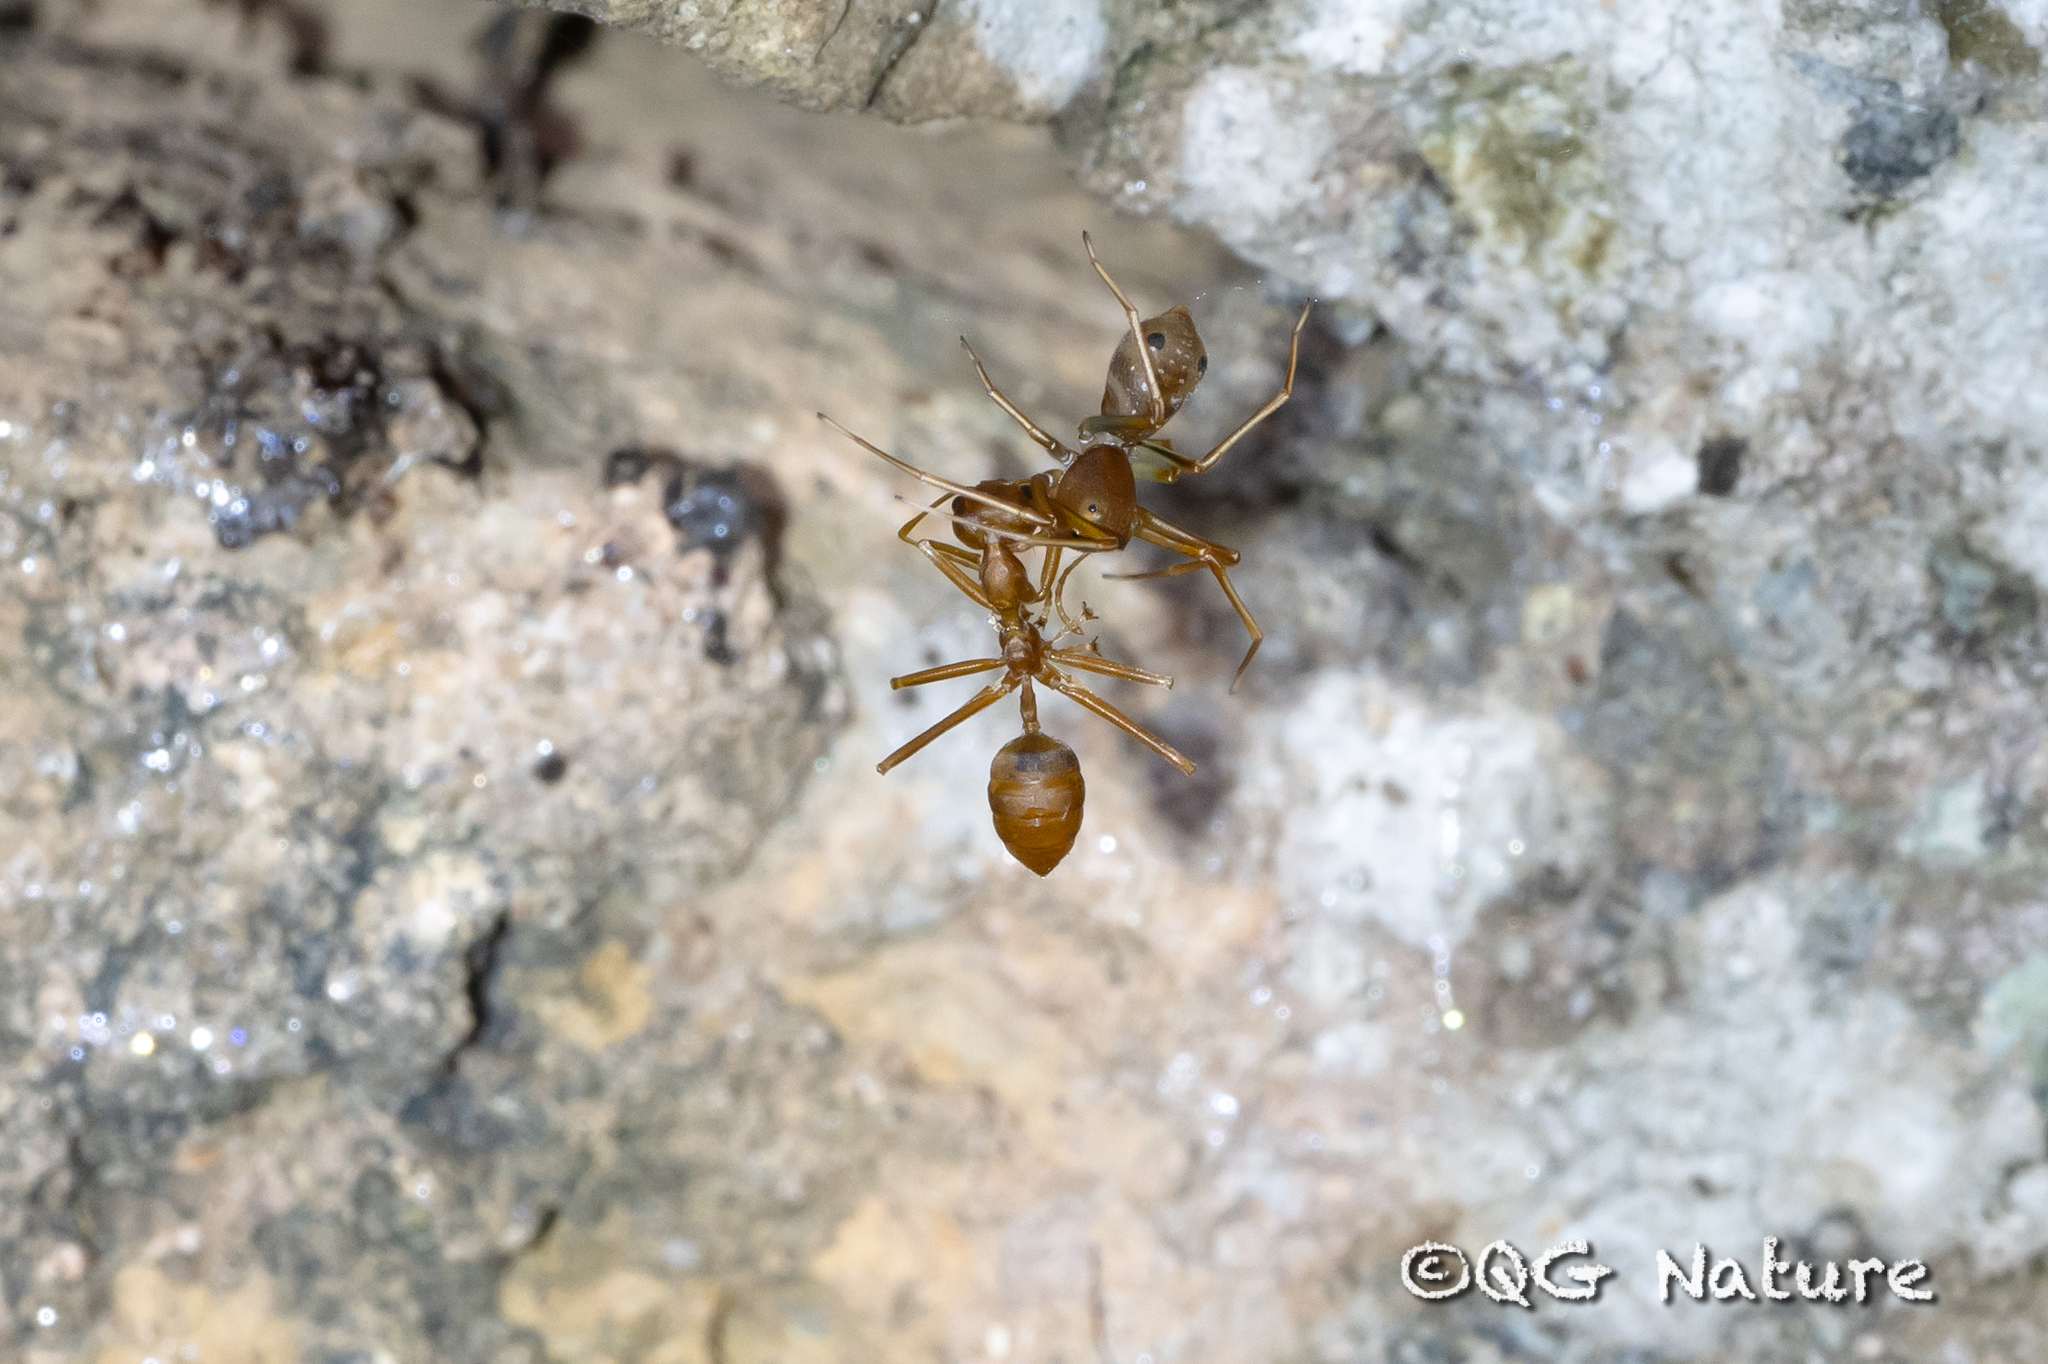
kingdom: Animalia
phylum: Arthropoda
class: Insecta
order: Hymenoptera
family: Formicidae
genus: Oecophylla
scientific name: Oecophylla smaragdina
